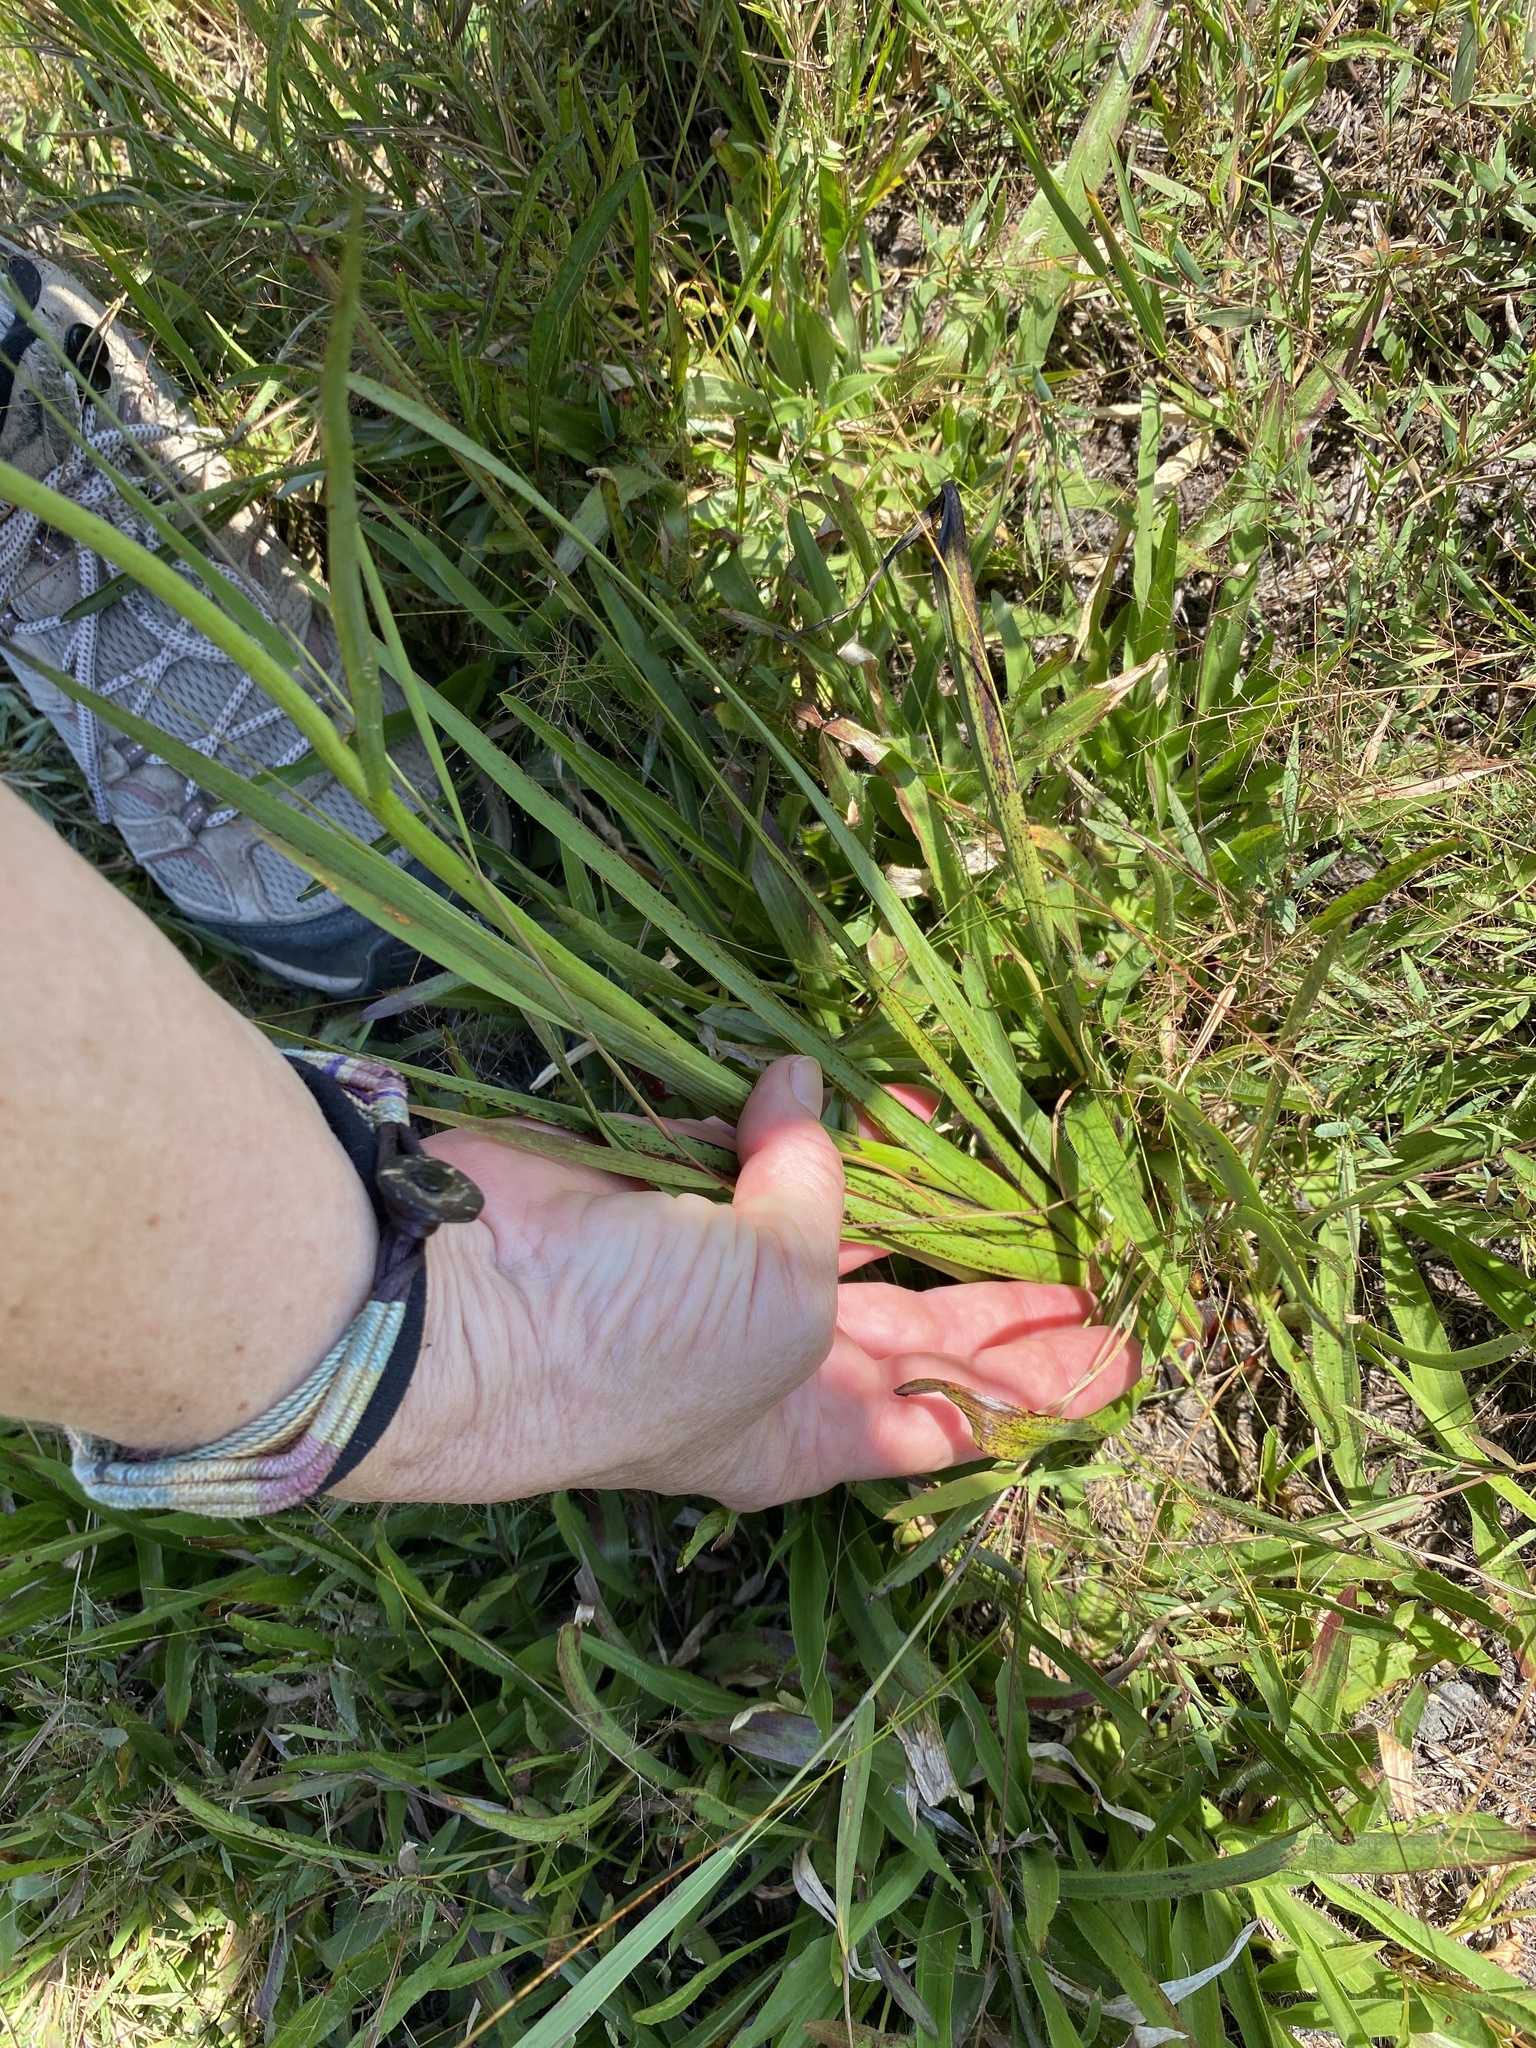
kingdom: Plantae
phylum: Tracheophyta
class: Liliopsida
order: Commelinales
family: Haemodoraceae
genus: Lachnanthes
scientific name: Lachnanthes caroliana
